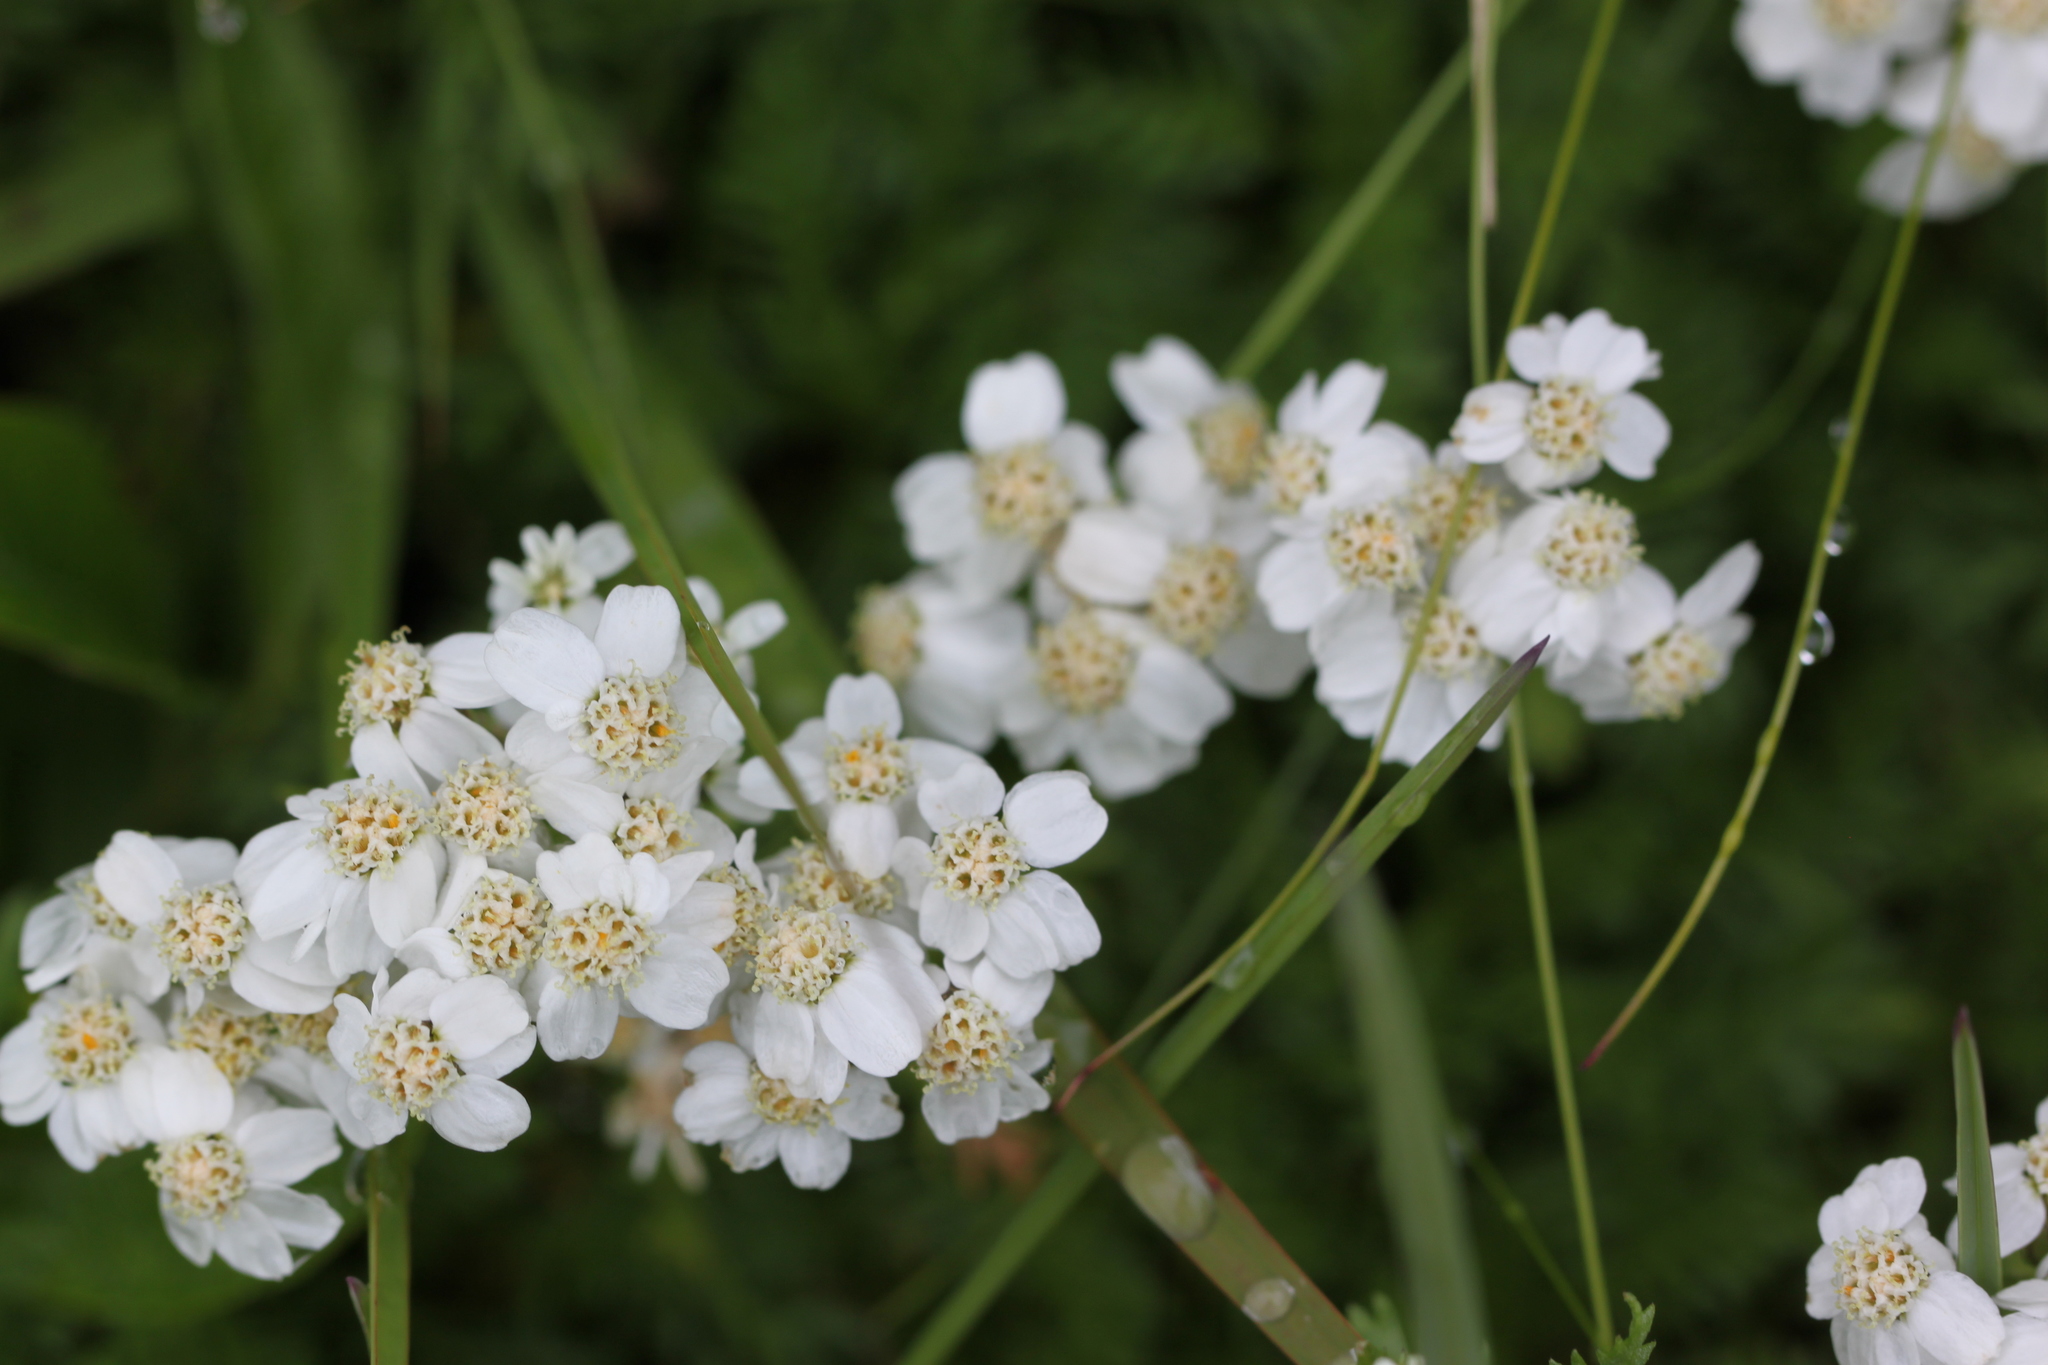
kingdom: Plantae
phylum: Tracheophyta
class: Magnoliopsida
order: Asterales
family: Asteraceae
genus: Achillea
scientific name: Achillea erba-rotta
